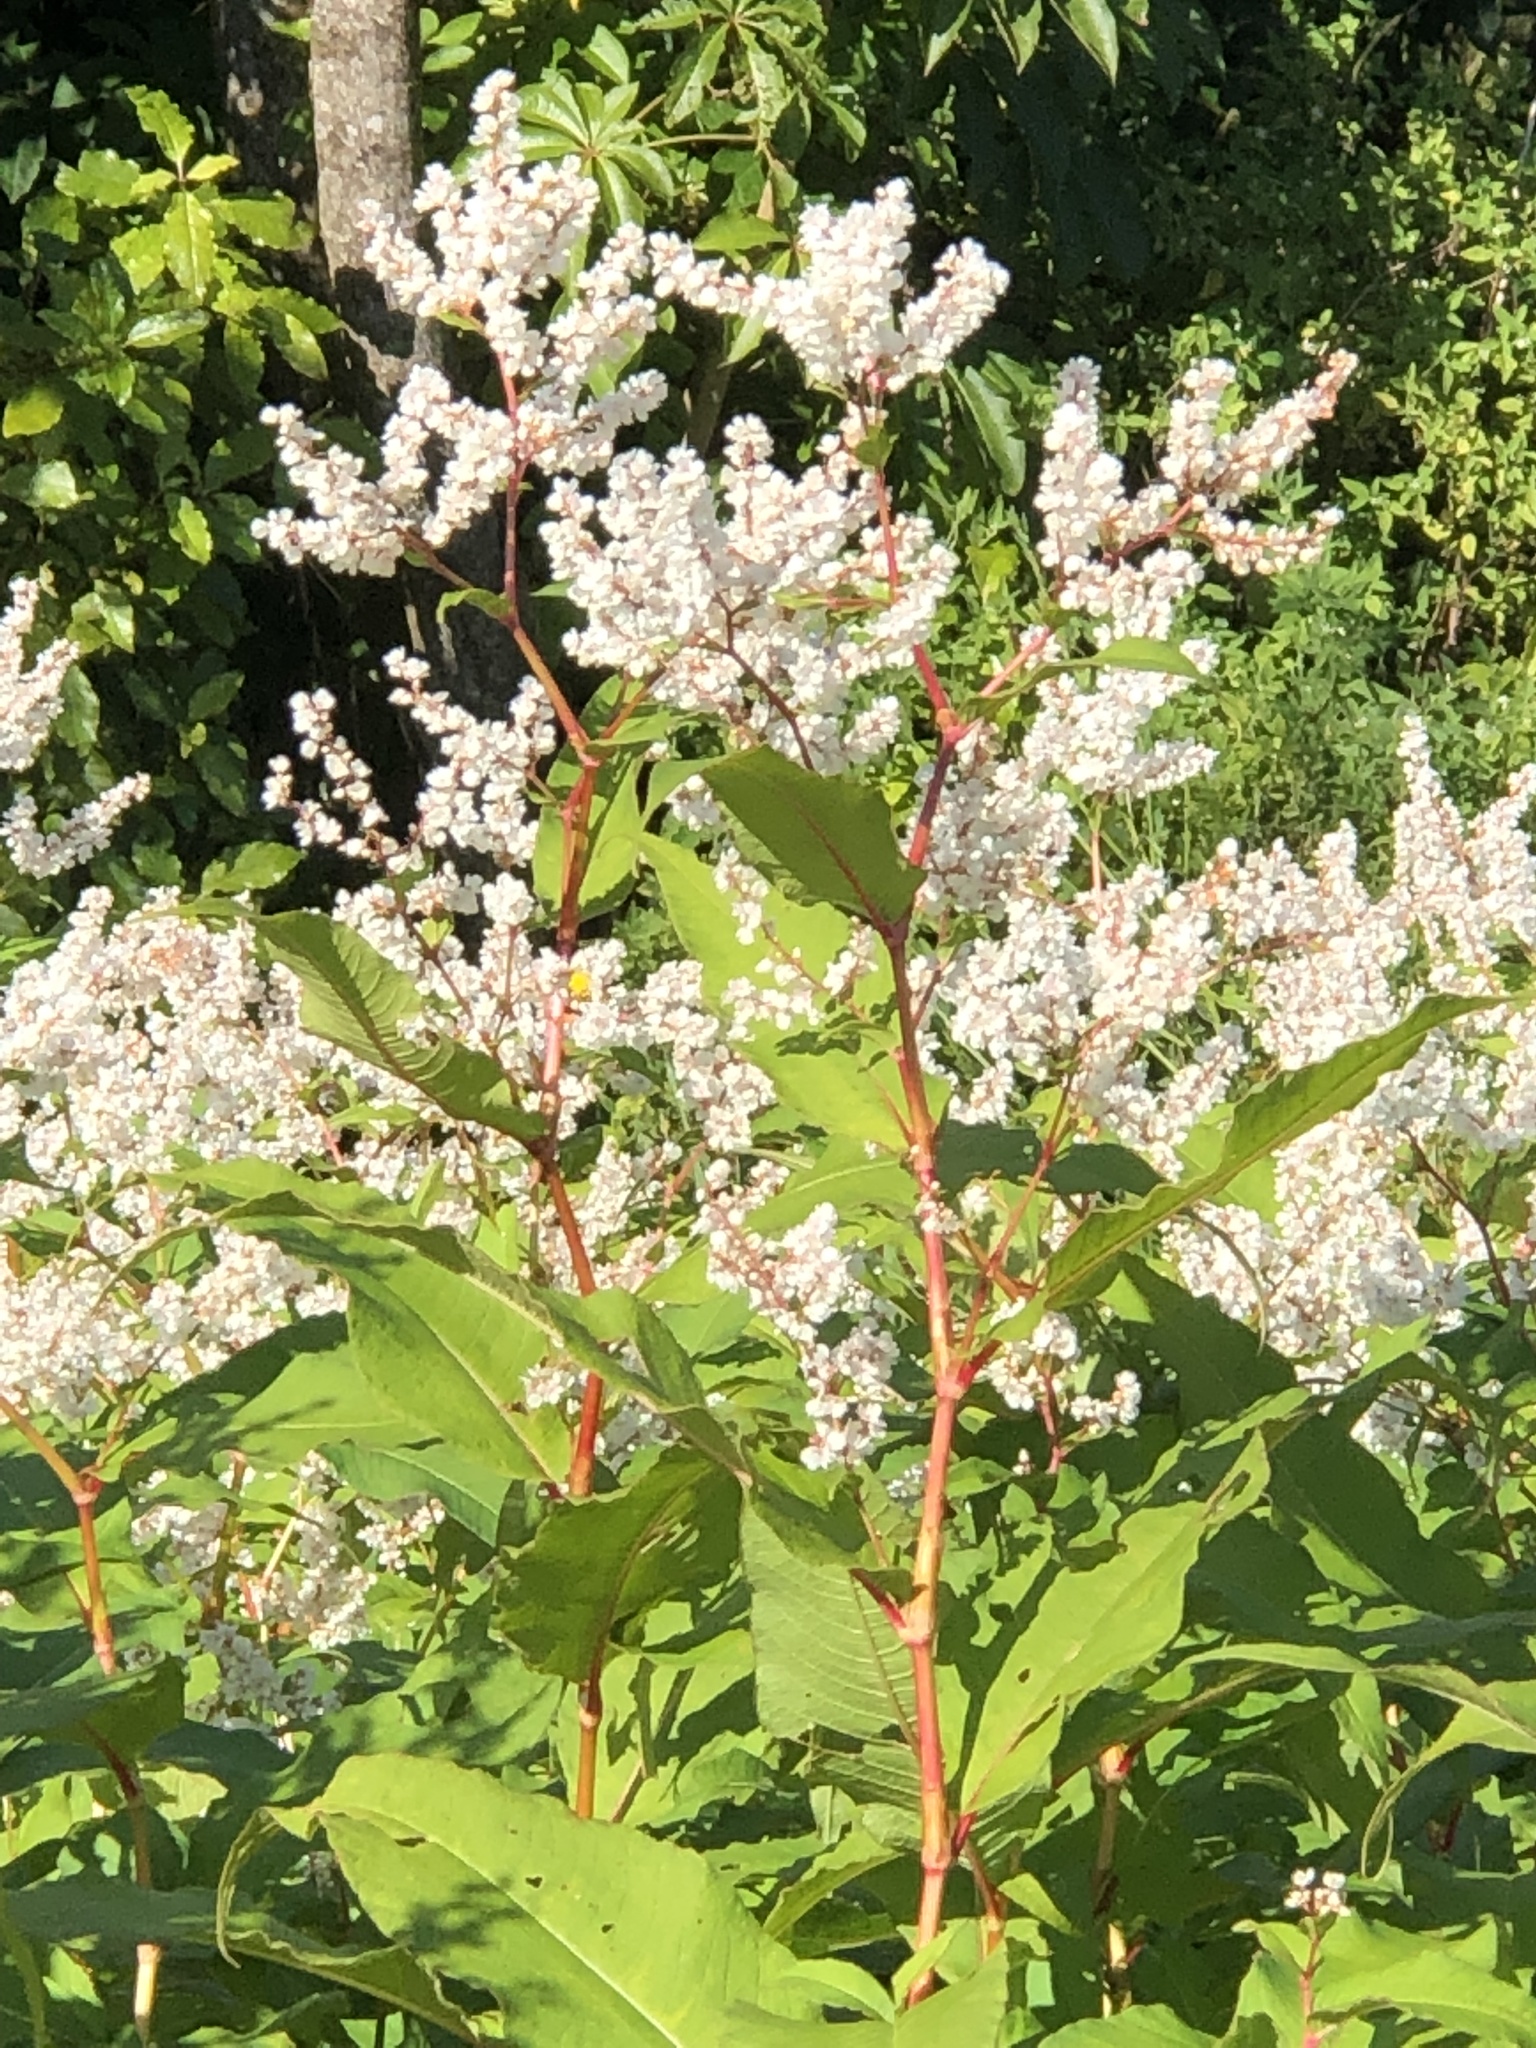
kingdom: Plantae
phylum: Tracheophyta
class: Magnoliopsida
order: Caryophyllales
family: Polygonaceae
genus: Koenigia
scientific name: Koenigia polystachya
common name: Himalayan knotweed
